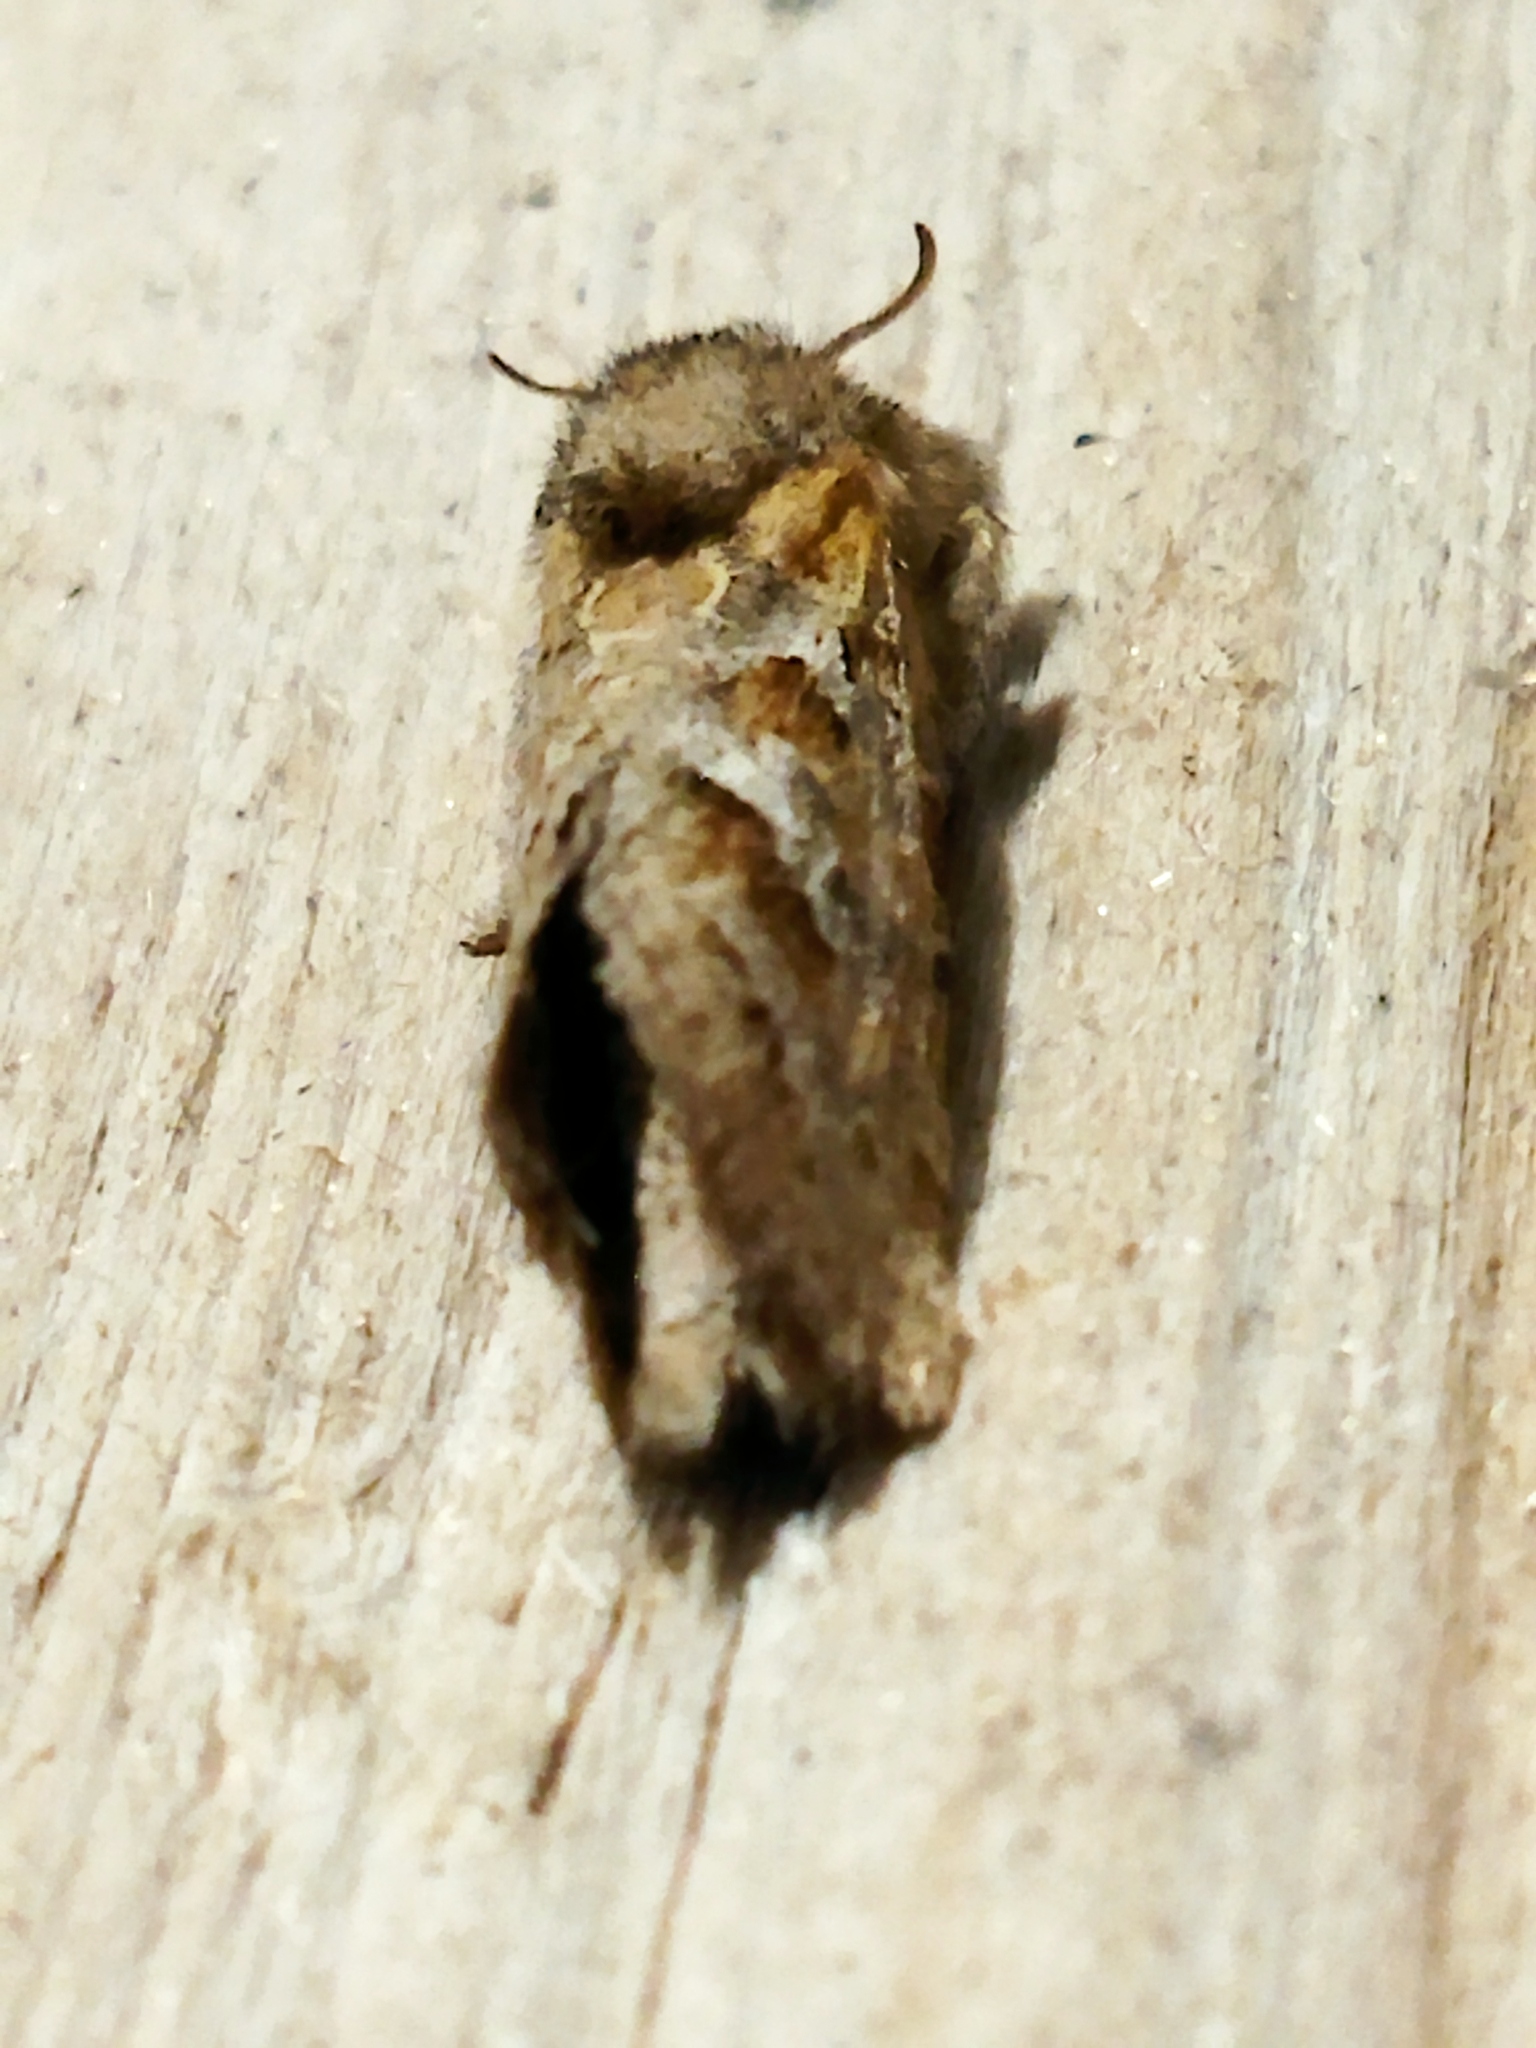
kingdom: Animalia
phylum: Arthropoda
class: Insecta
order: Lepidoptera
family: Hepialidae
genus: Triodia
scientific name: Triodia amasinus
